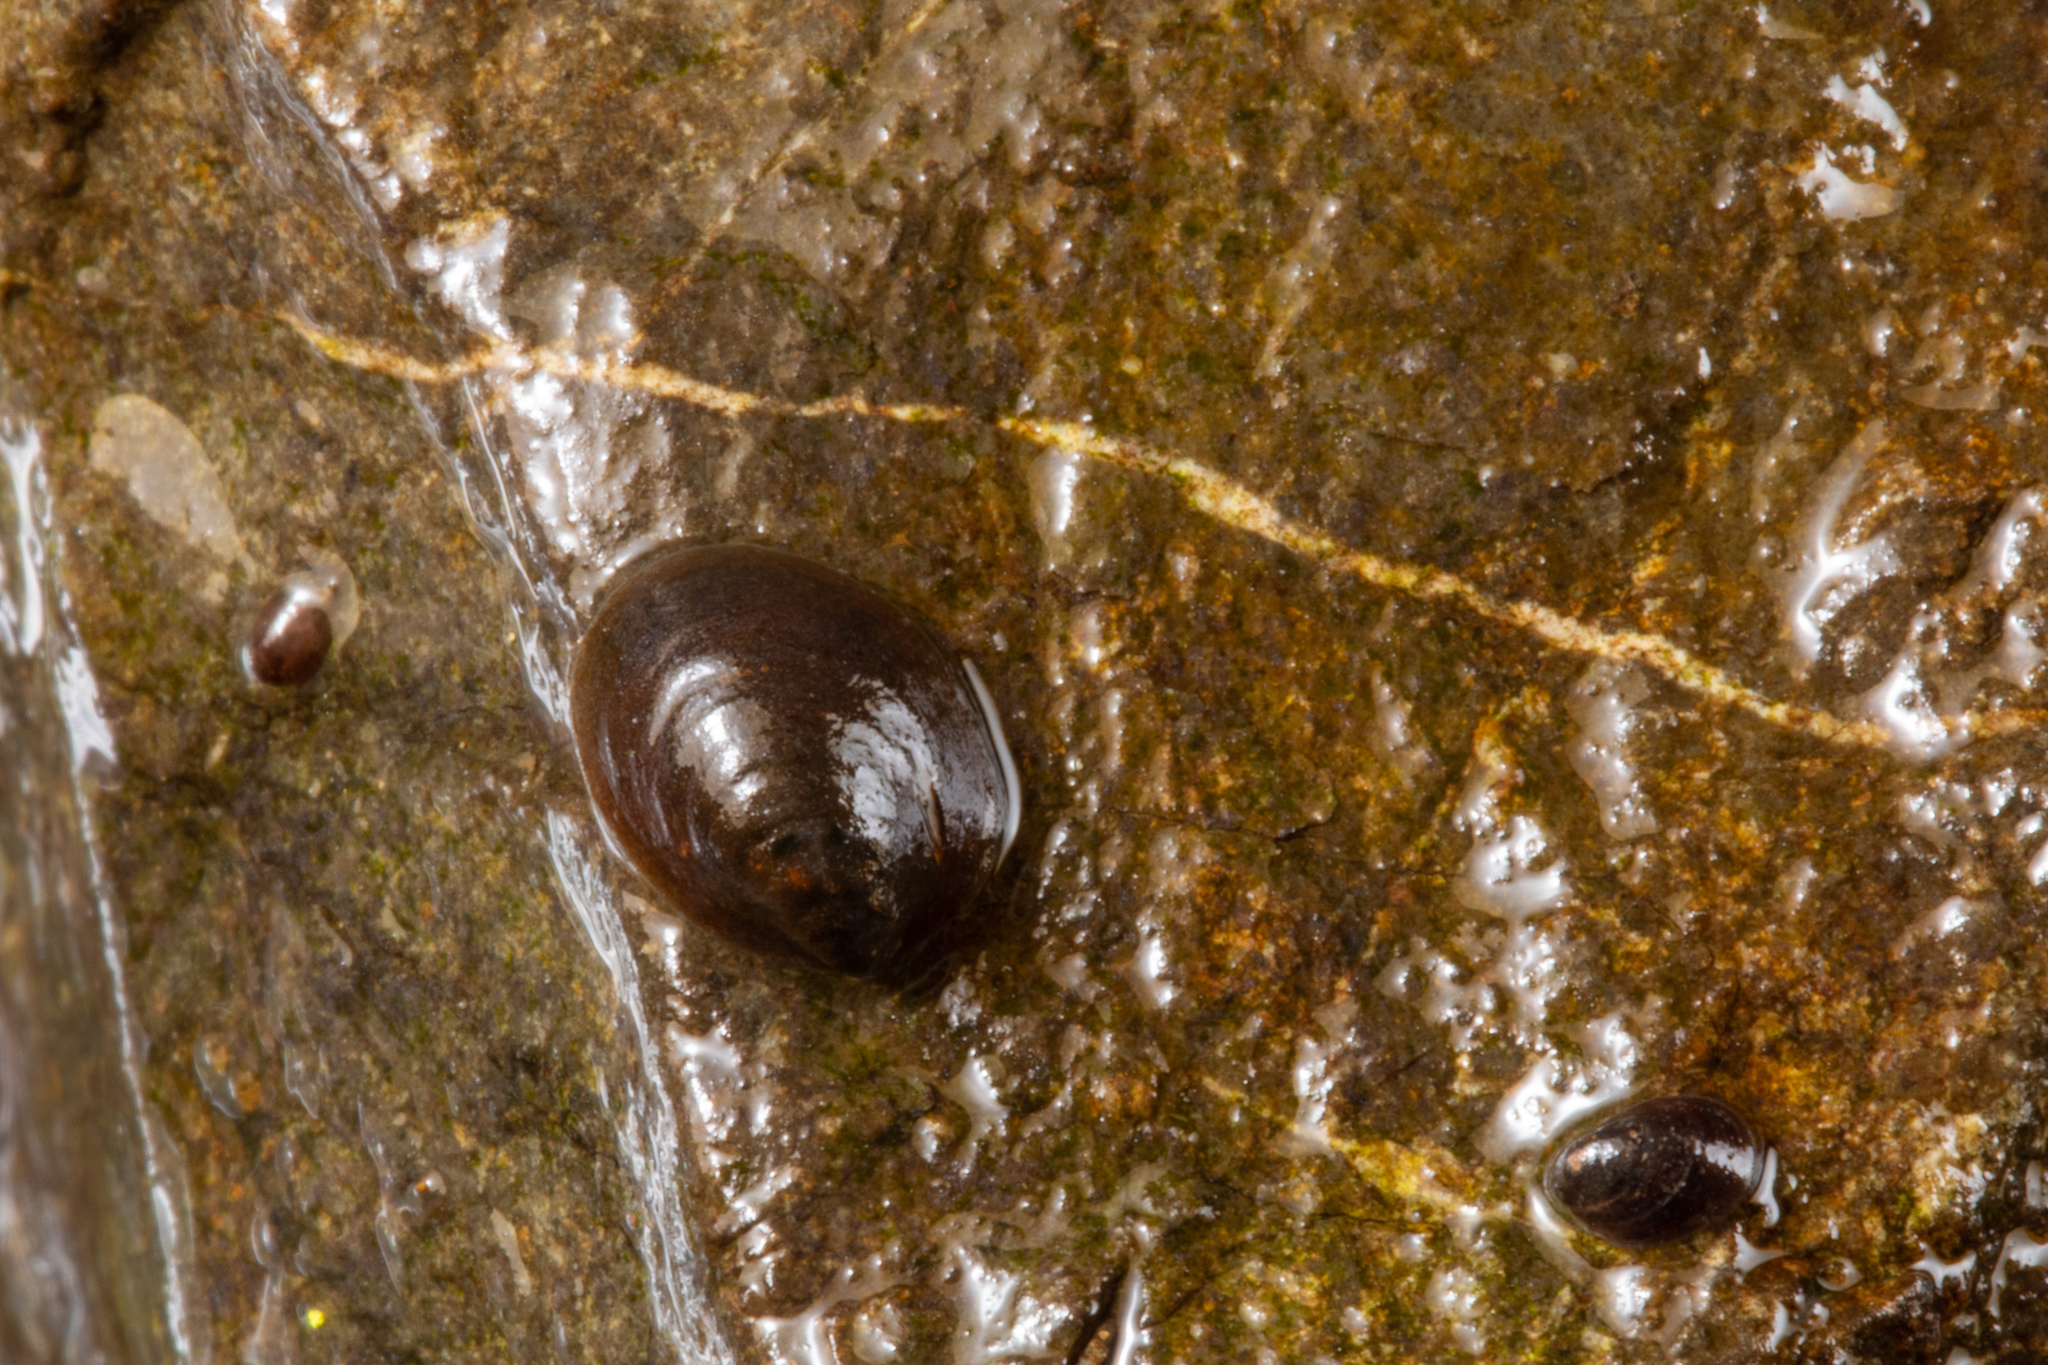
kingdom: Animalia
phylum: Mollusca
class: Gastropoda
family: Latiidae
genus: Latia
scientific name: Latia neritoides
